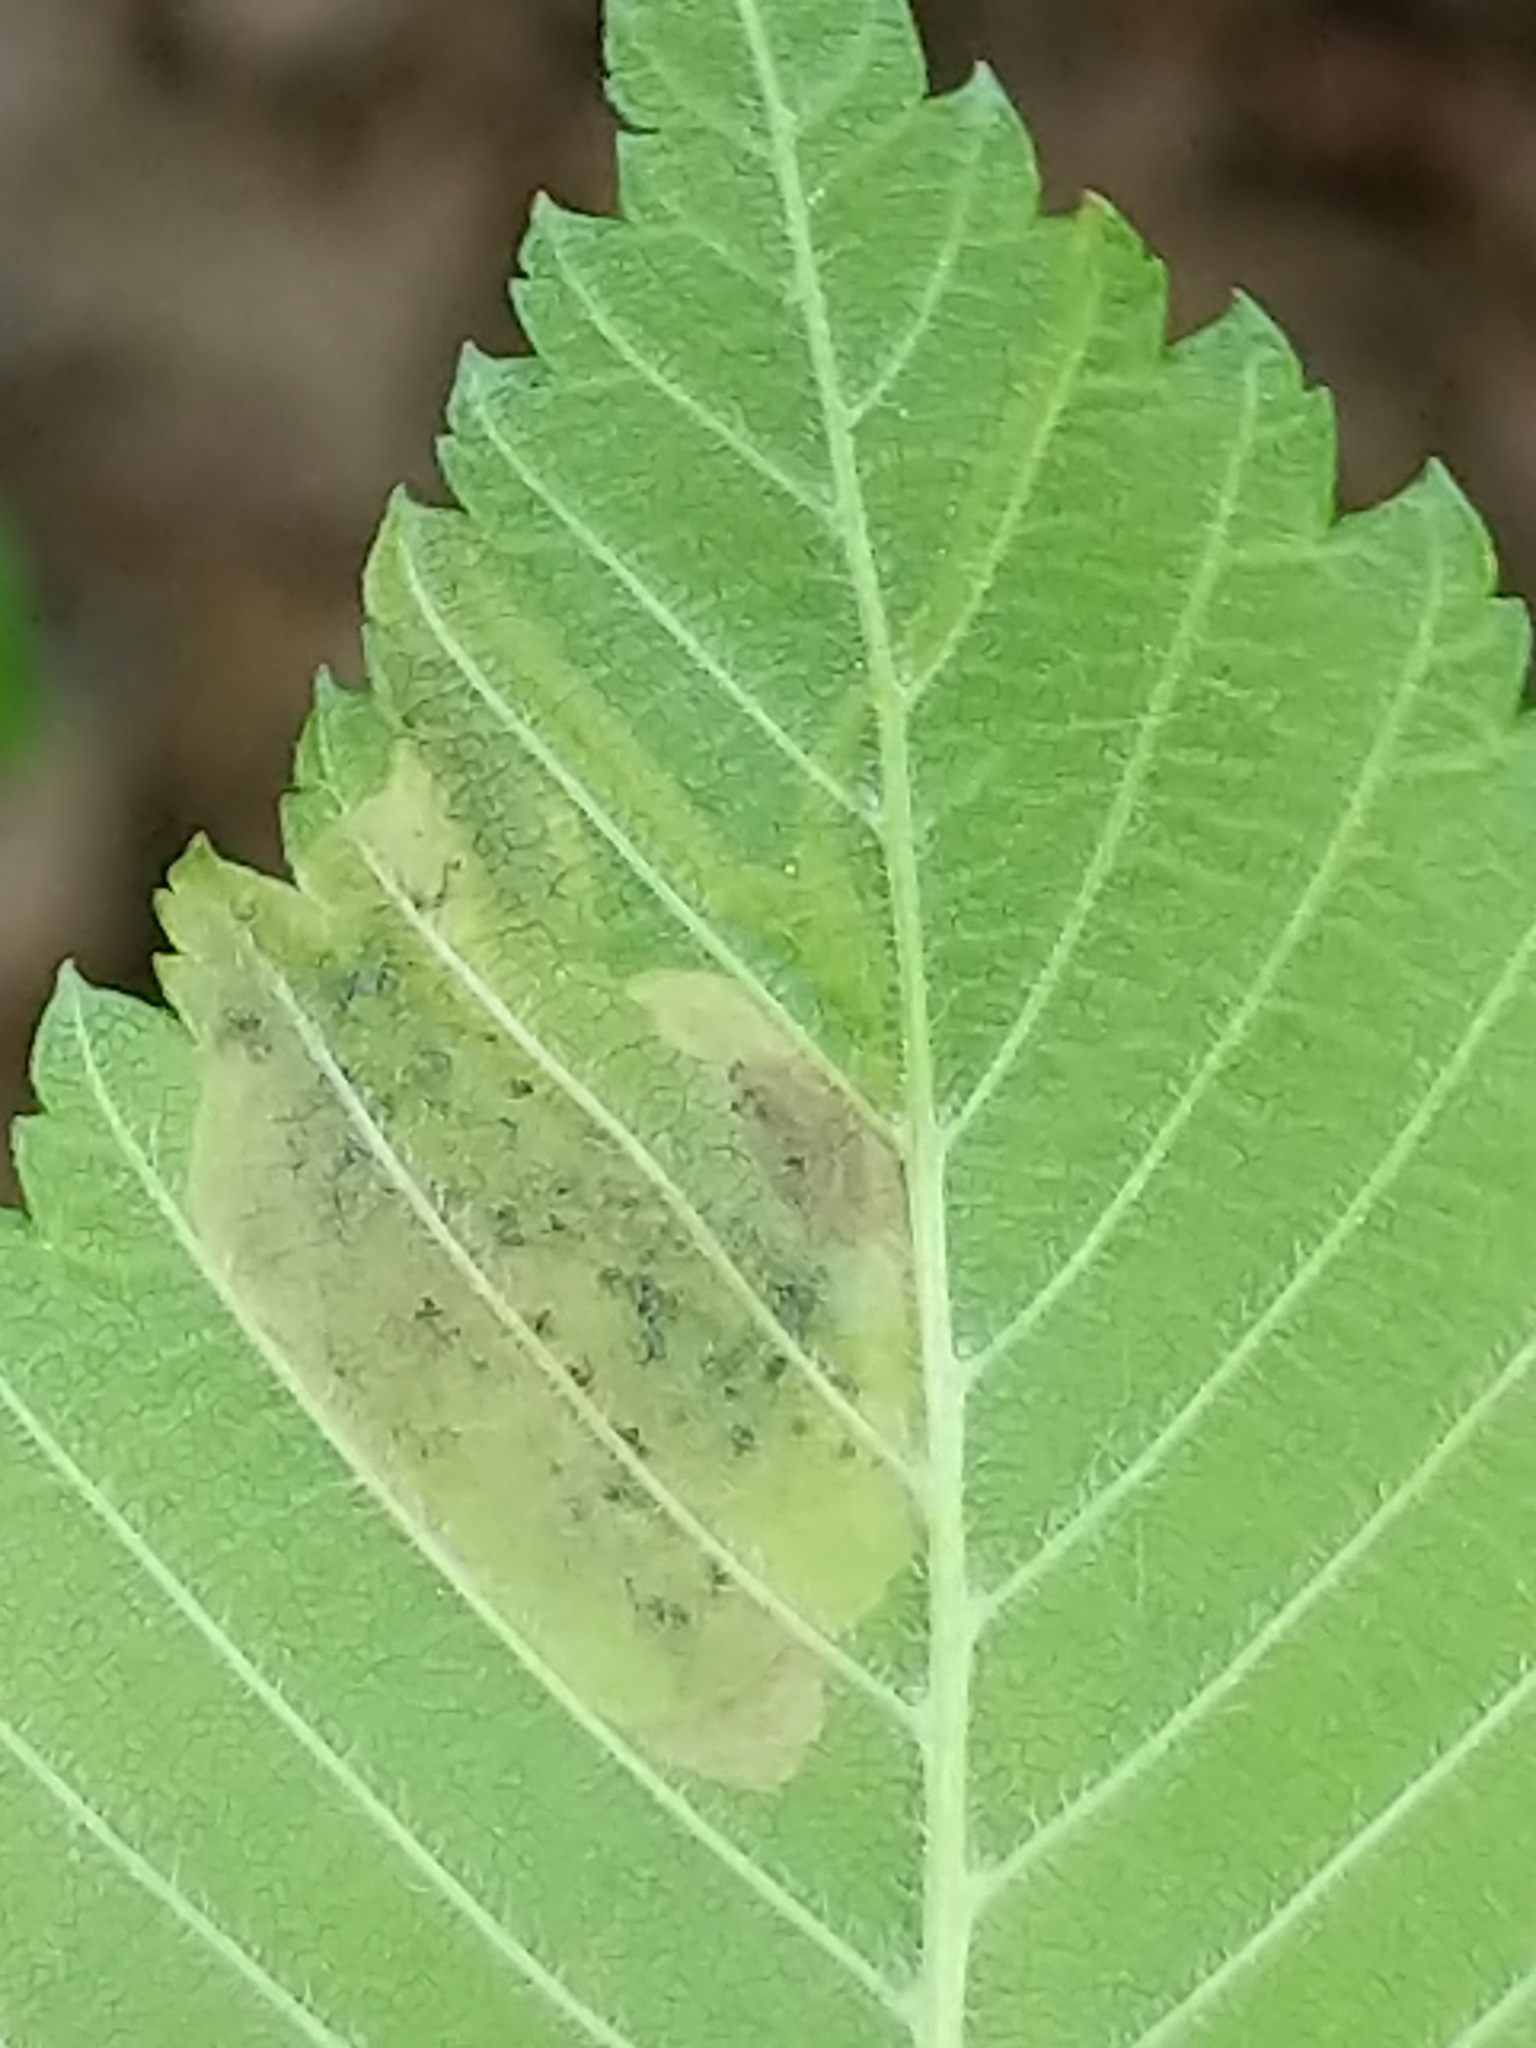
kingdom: Animalia
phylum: Arthropoda
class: Insecta
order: Diptera
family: Agromyzidae
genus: Agromyza
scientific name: Agromyza aristata
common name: Elm agromyzid leafminer
